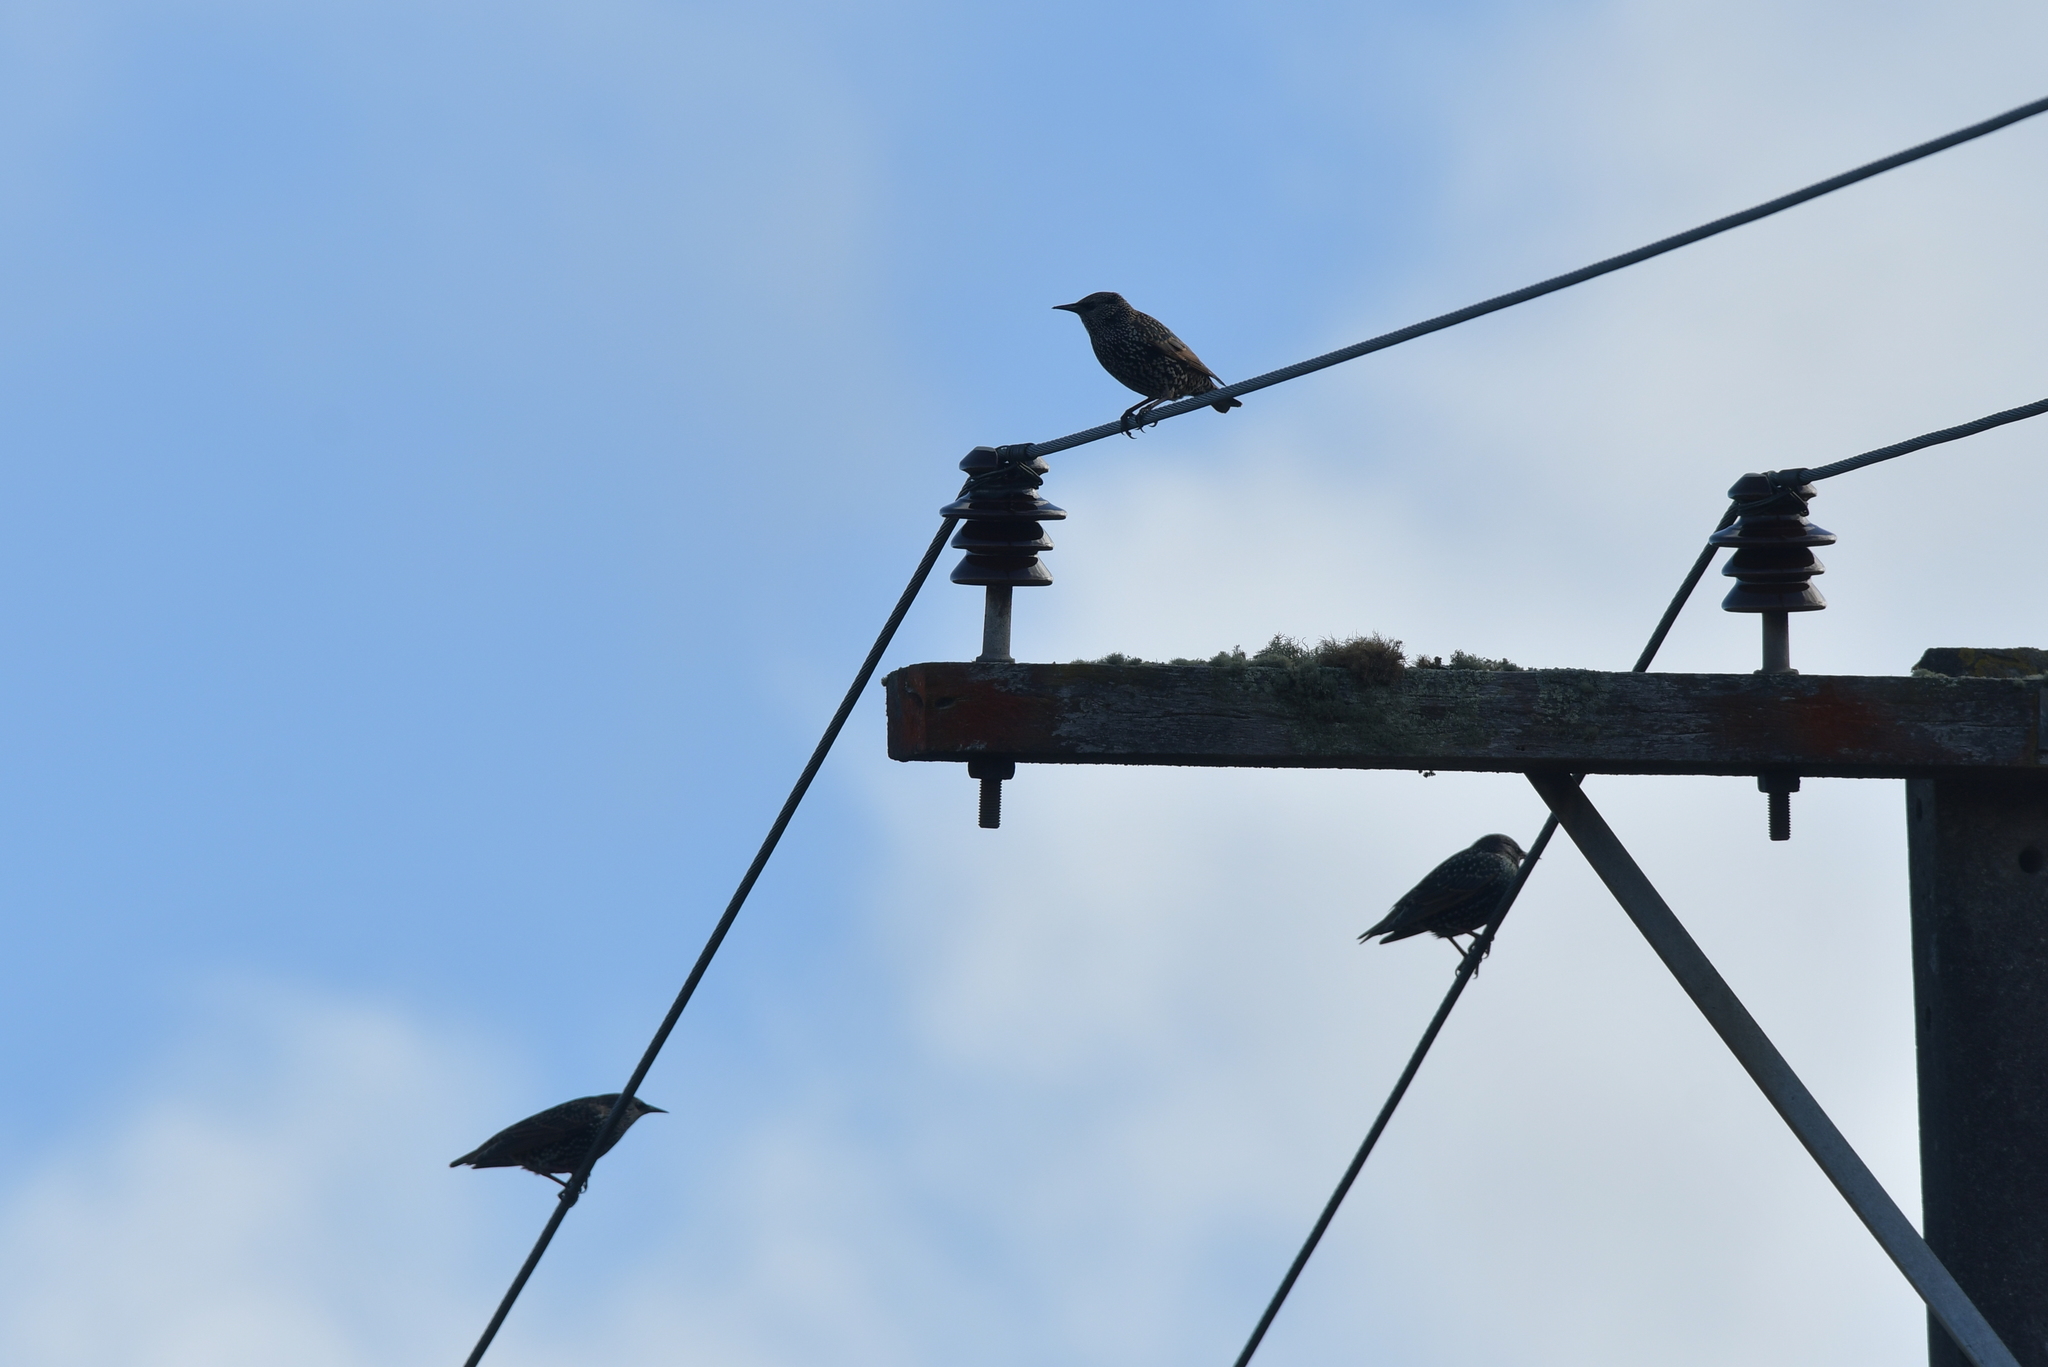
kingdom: Animalia
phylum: Chordata
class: Aves
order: Passeriformes
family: Sturnidae
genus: Sturnus
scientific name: Sturnus vulgaris
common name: Common starling
